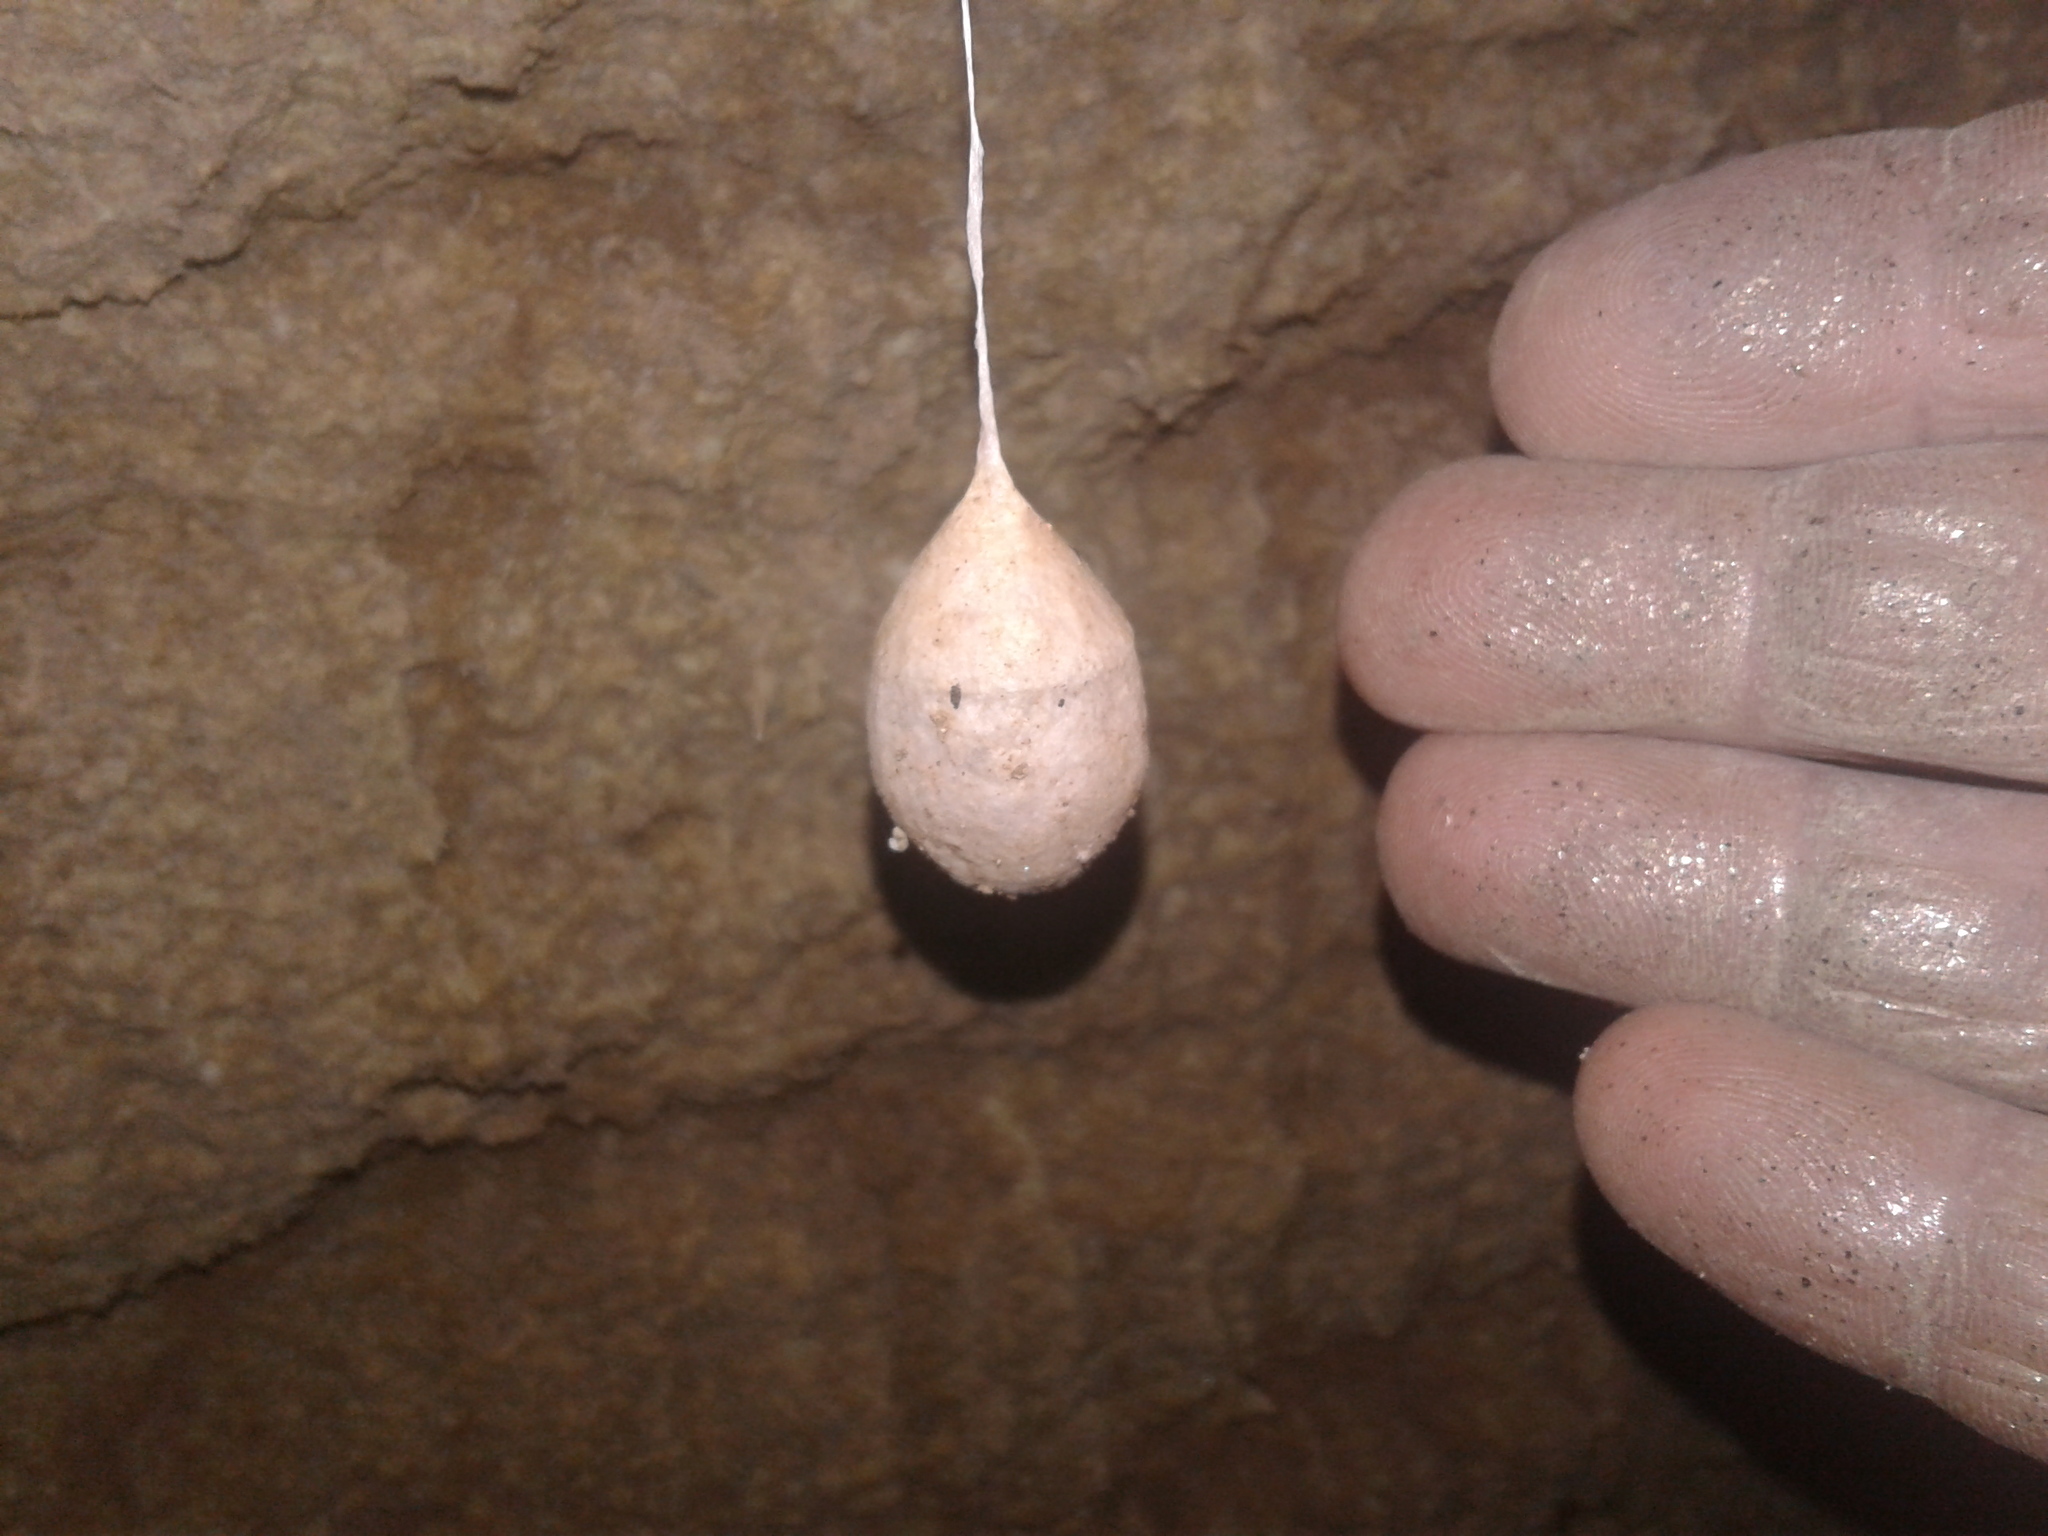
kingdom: Animalia
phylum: Arthropoda
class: Arachnida
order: Araneae
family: Gradungulidae
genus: Spelungula
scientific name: Spelungula cavernicola
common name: Nelson cave spider
